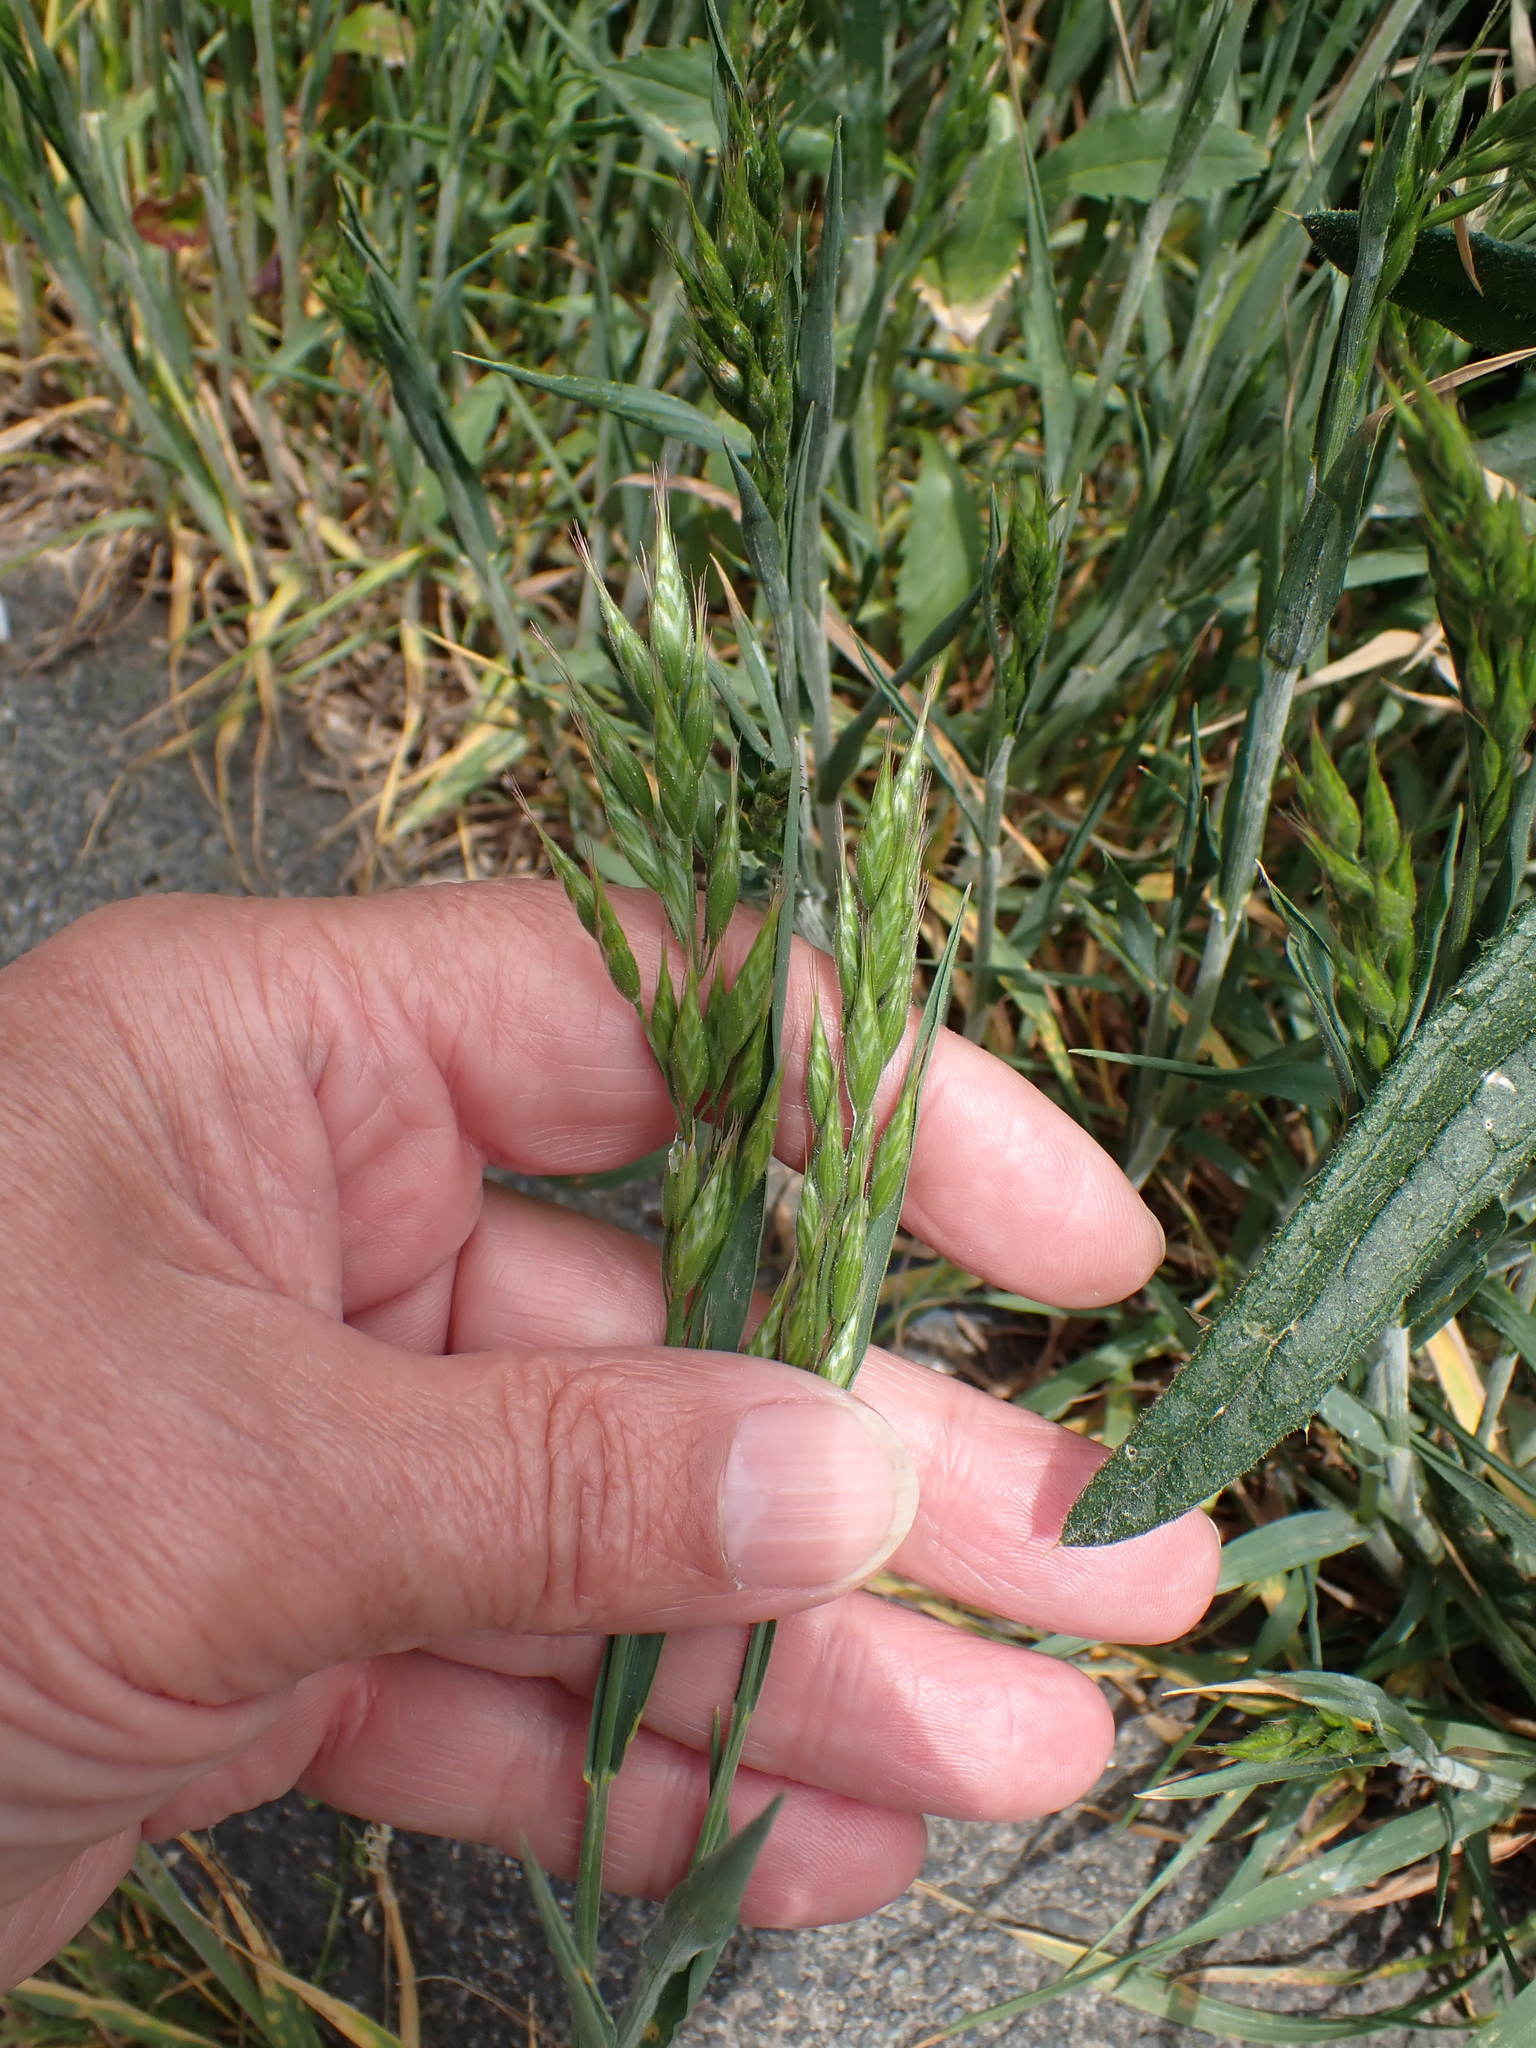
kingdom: Plantae
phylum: Tracheophyta
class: Liliopsida
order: Poales
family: Poaceae
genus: Bromus
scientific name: Bromus hordeaceus
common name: Soft brome
